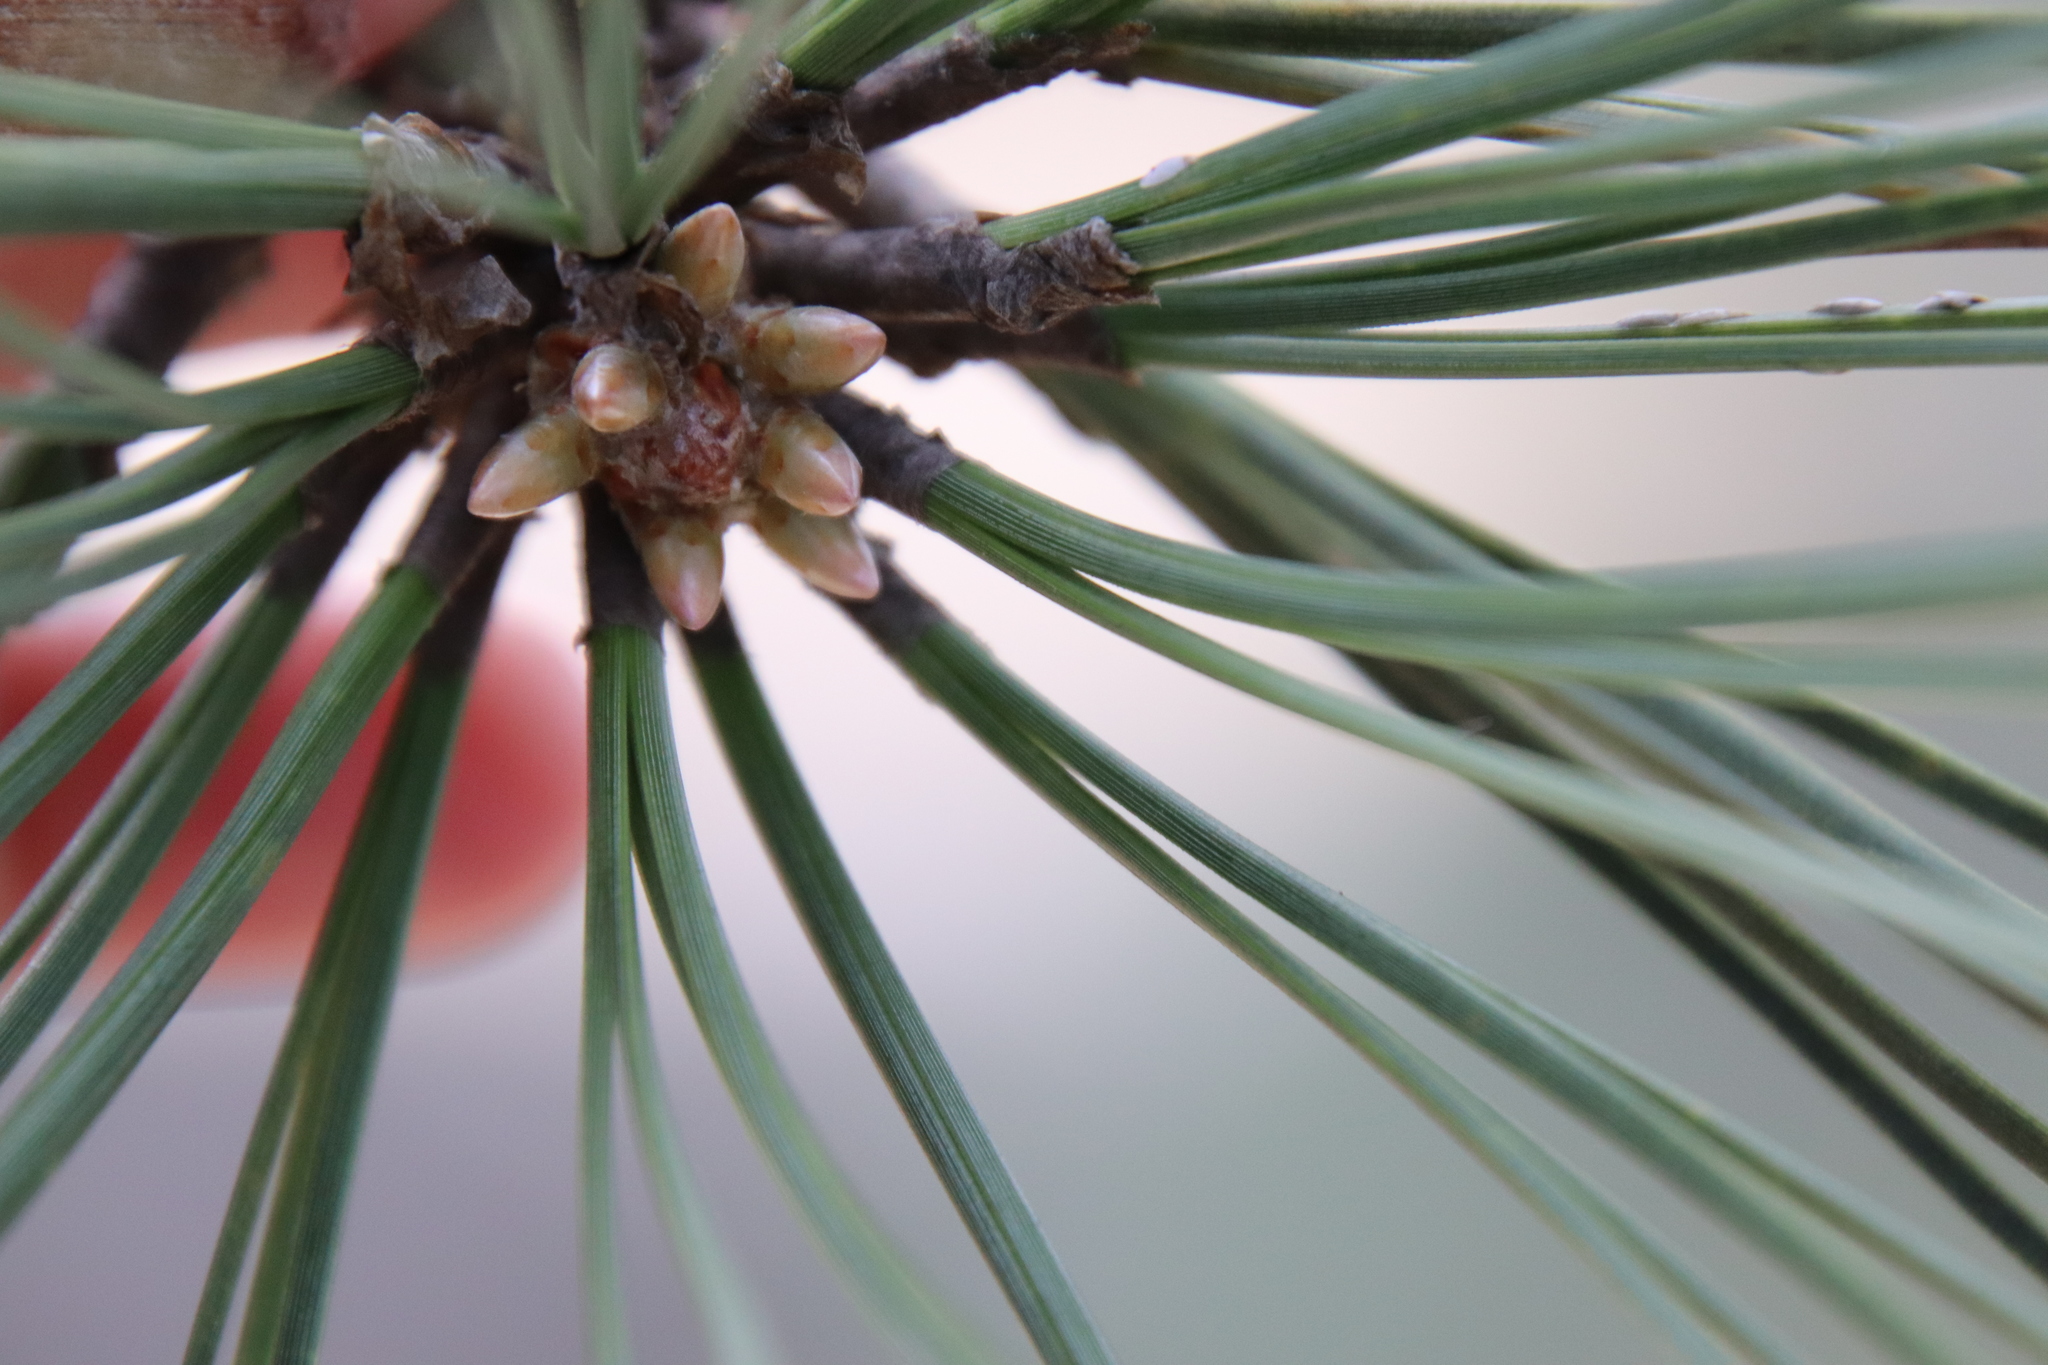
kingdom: Plantae
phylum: Tracheophyta
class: Pinopsida
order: Pinales
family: Pinaceae
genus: Pinus
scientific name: Pinus torreyana
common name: Torrey pine
